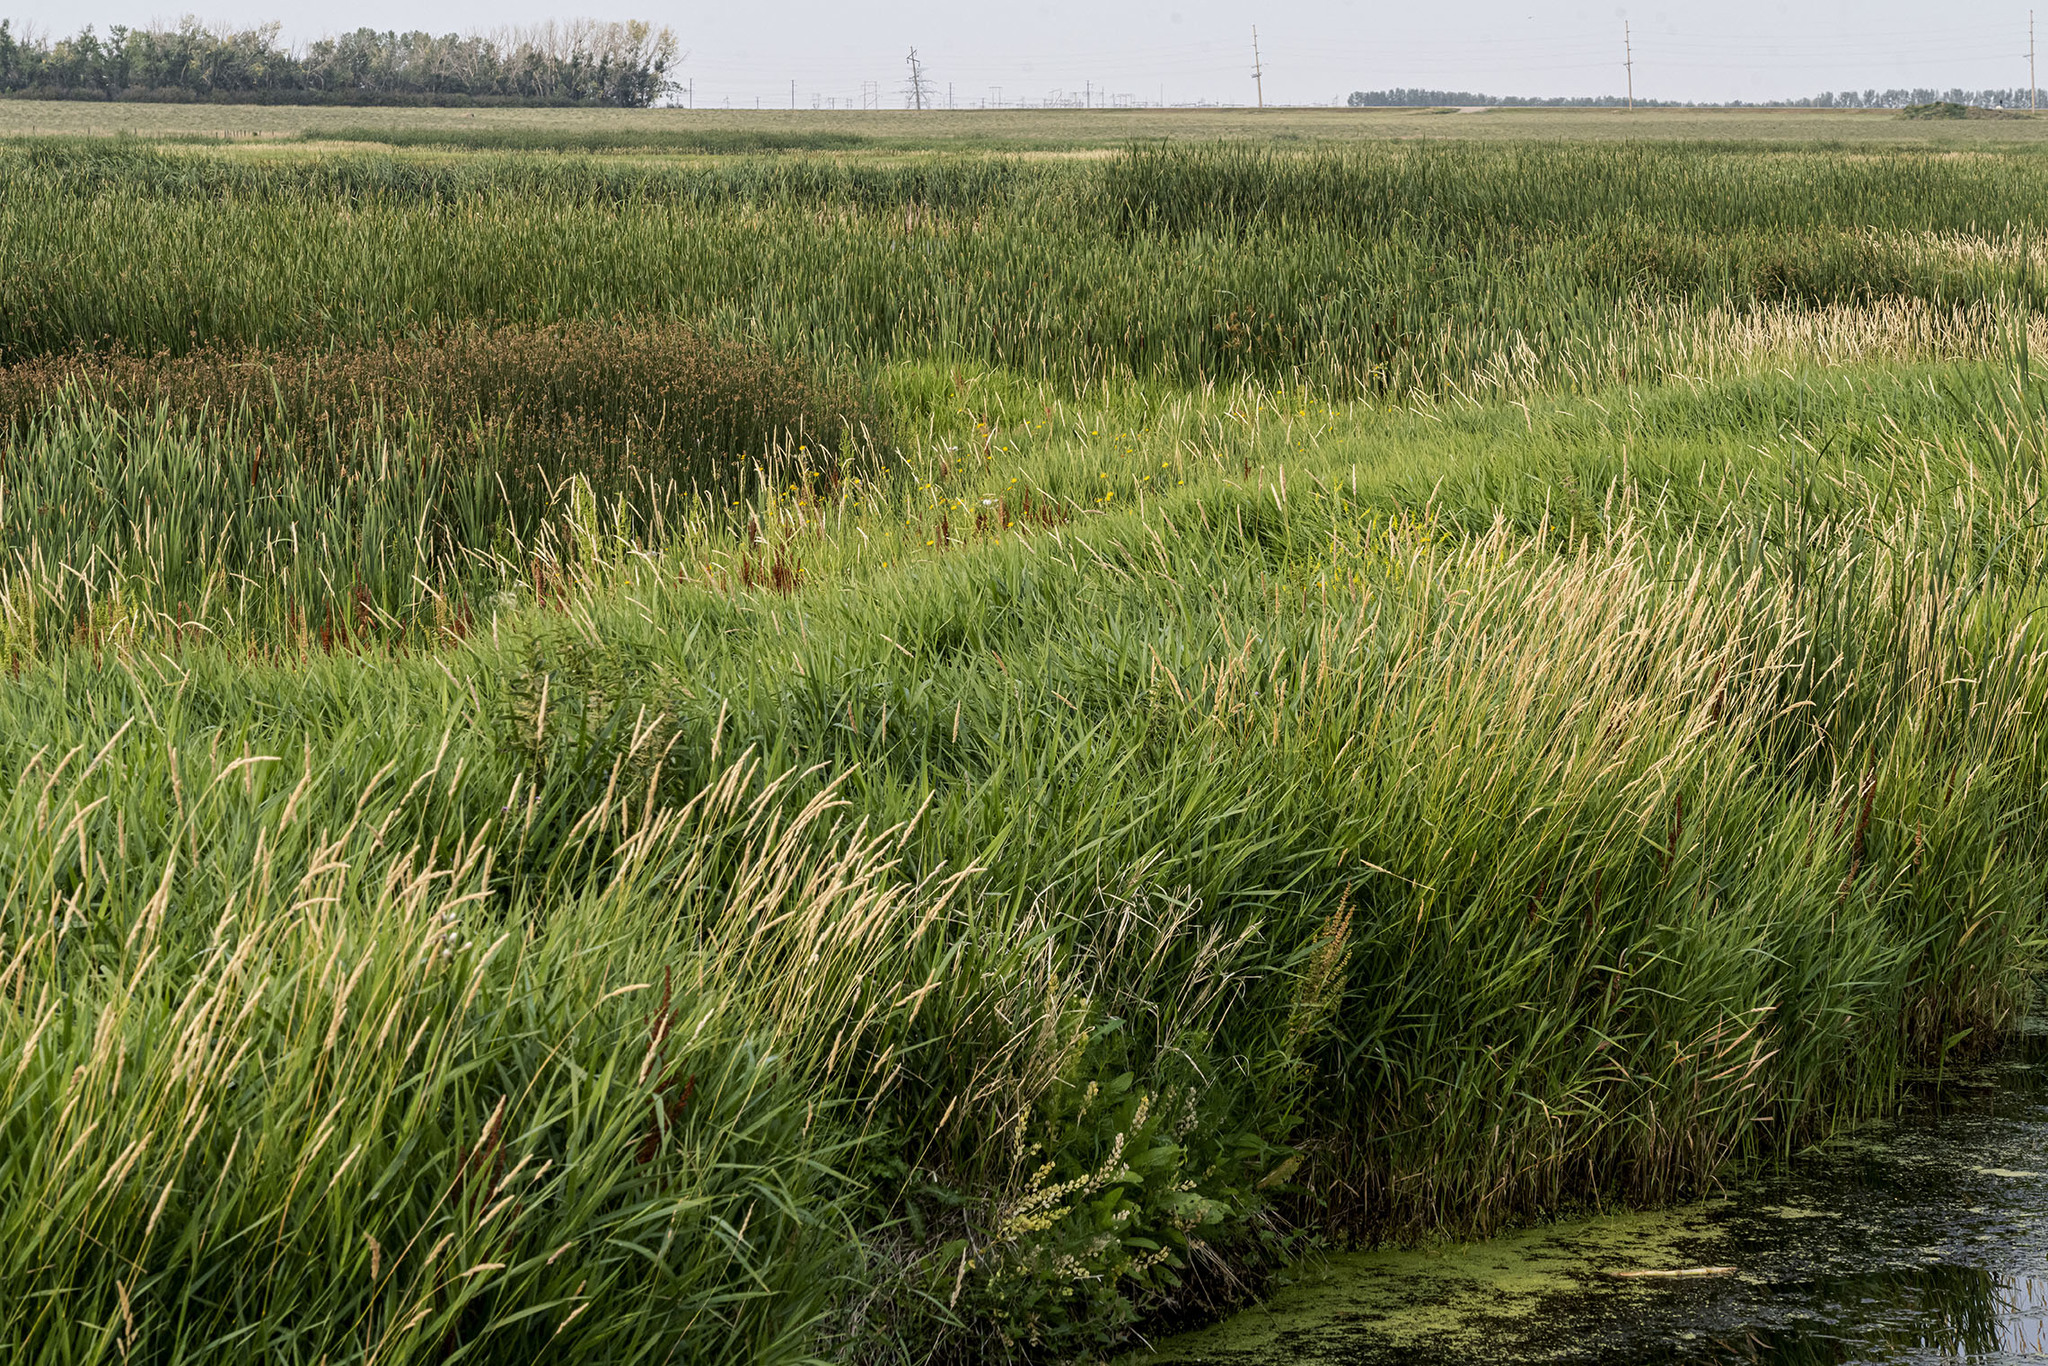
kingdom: Plantae
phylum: Tracheophyta
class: Liliopsida
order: Poales
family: Poaceae
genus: Phalaris
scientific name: Phalaris arundinacea
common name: Reed canary-grass
